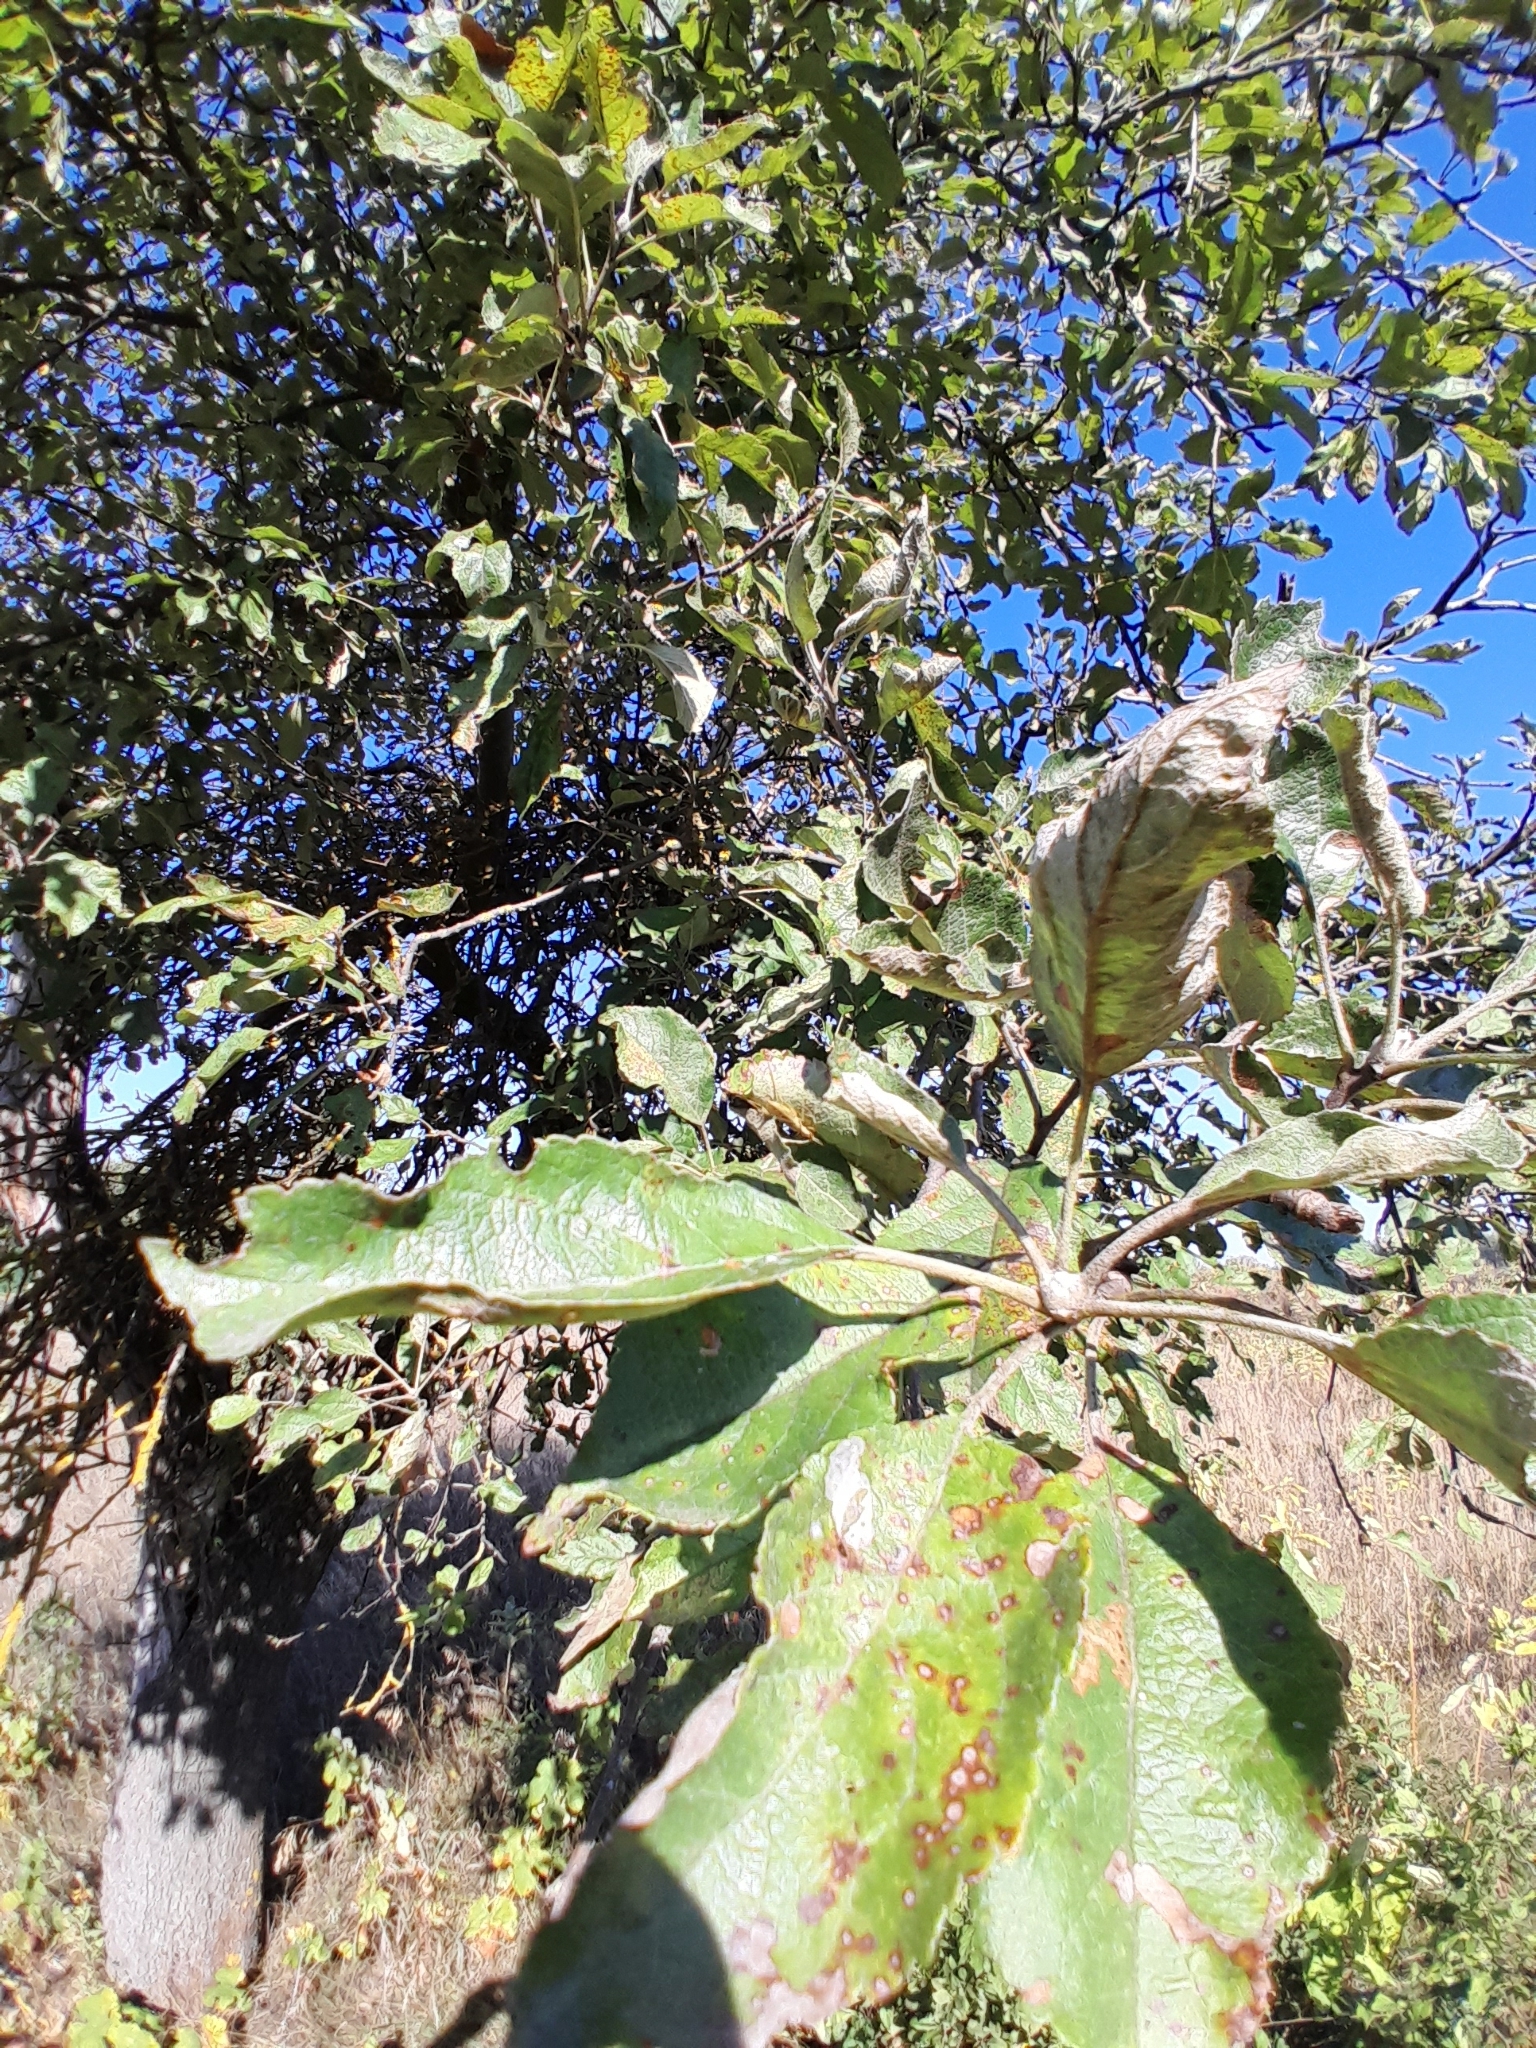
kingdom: Plantae
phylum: Tracheophyta
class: Magnoliopsida
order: Rosales
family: Rosaceae
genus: Malus
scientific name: Malus domestica
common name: Apple
